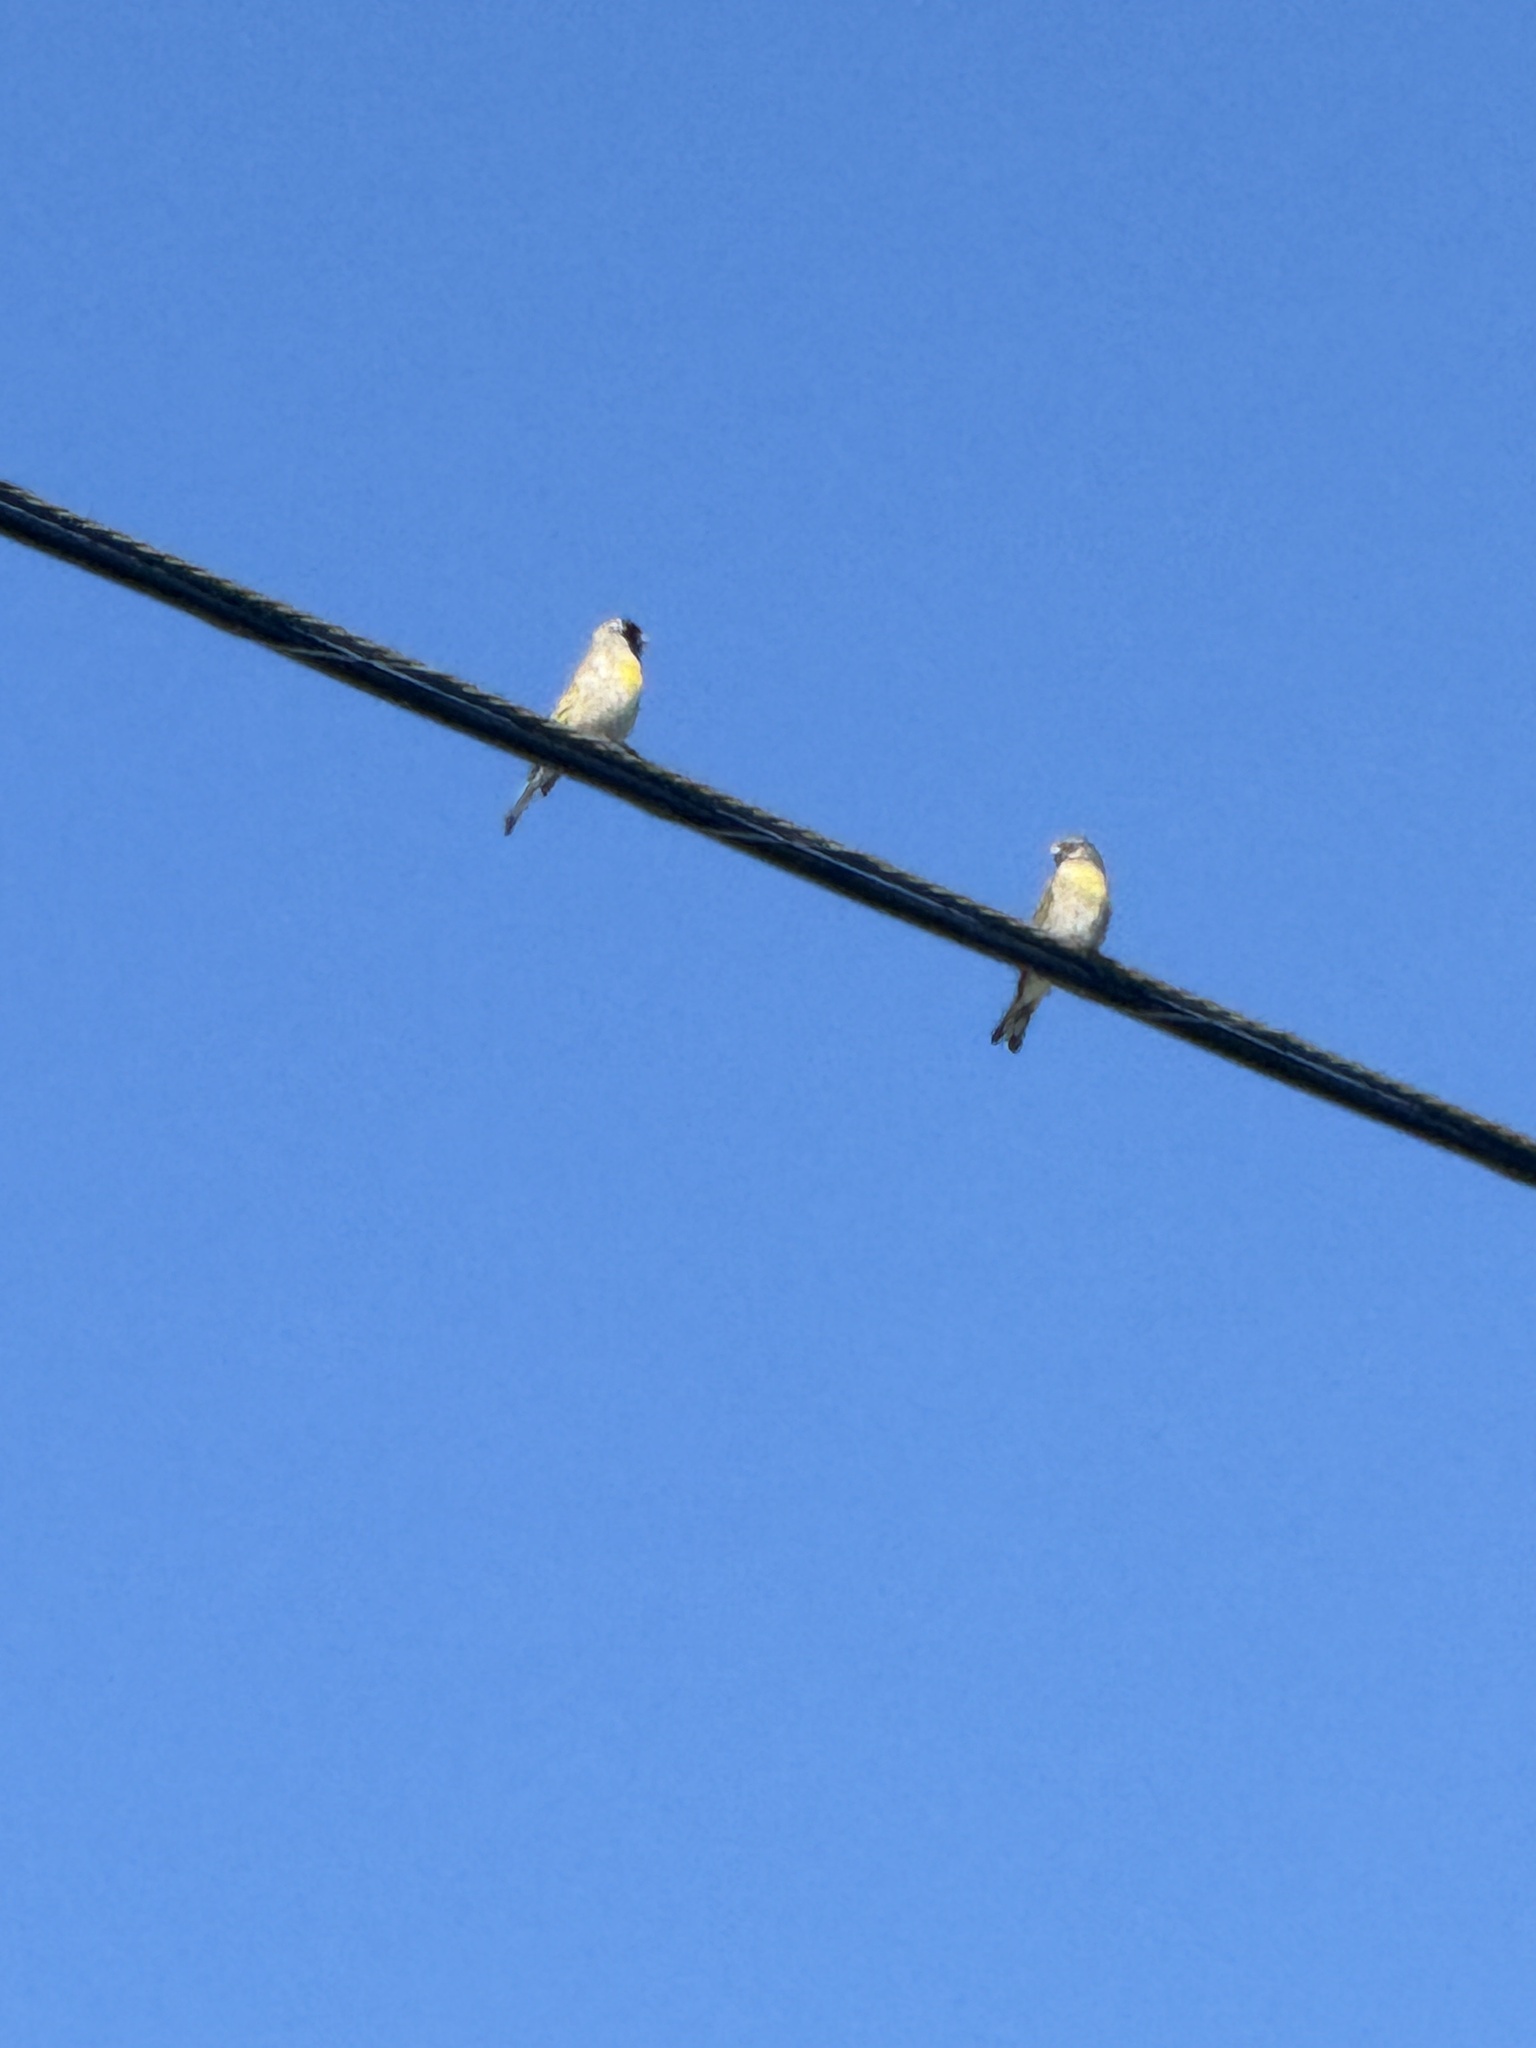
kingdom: Animalia
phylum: Chordata
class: Aves
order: Passeriformes
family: Fringillidae
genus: Spinus
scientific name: Spinus lawrencei
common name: Lawrence's goldfinch
